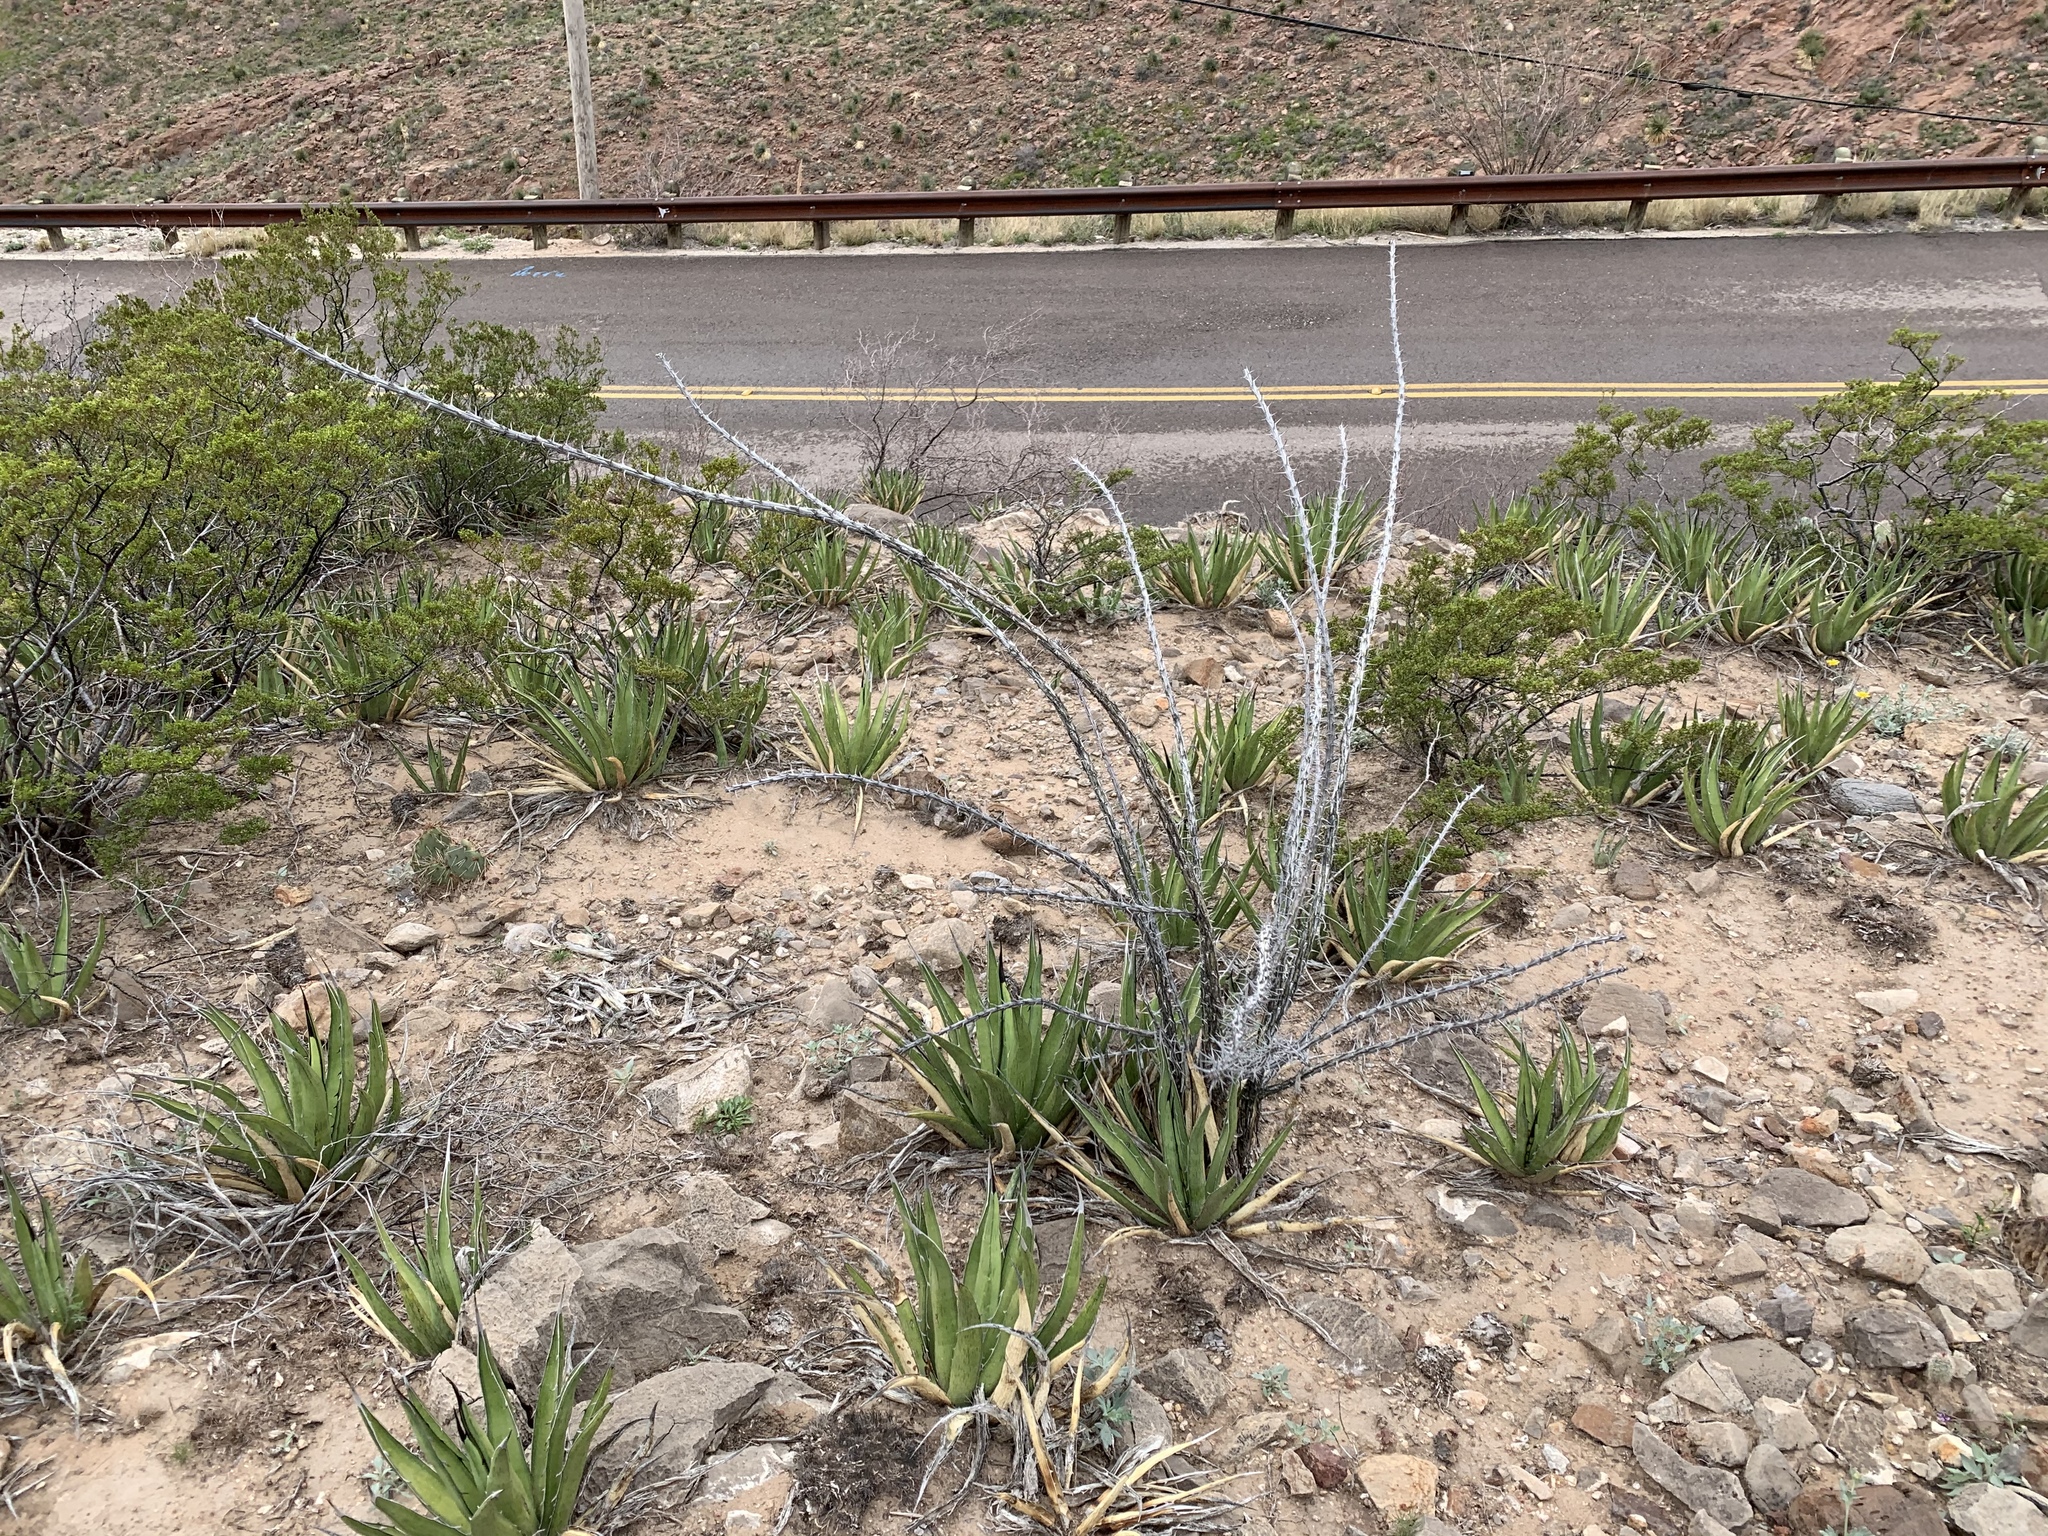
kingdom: Plantae
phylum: Tracheophyta
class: Magnoliopsida
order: Ericales
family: Fouquieriaceae
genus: Fouquieria
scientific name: Fouquieria splendens
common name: Vine-cactus
